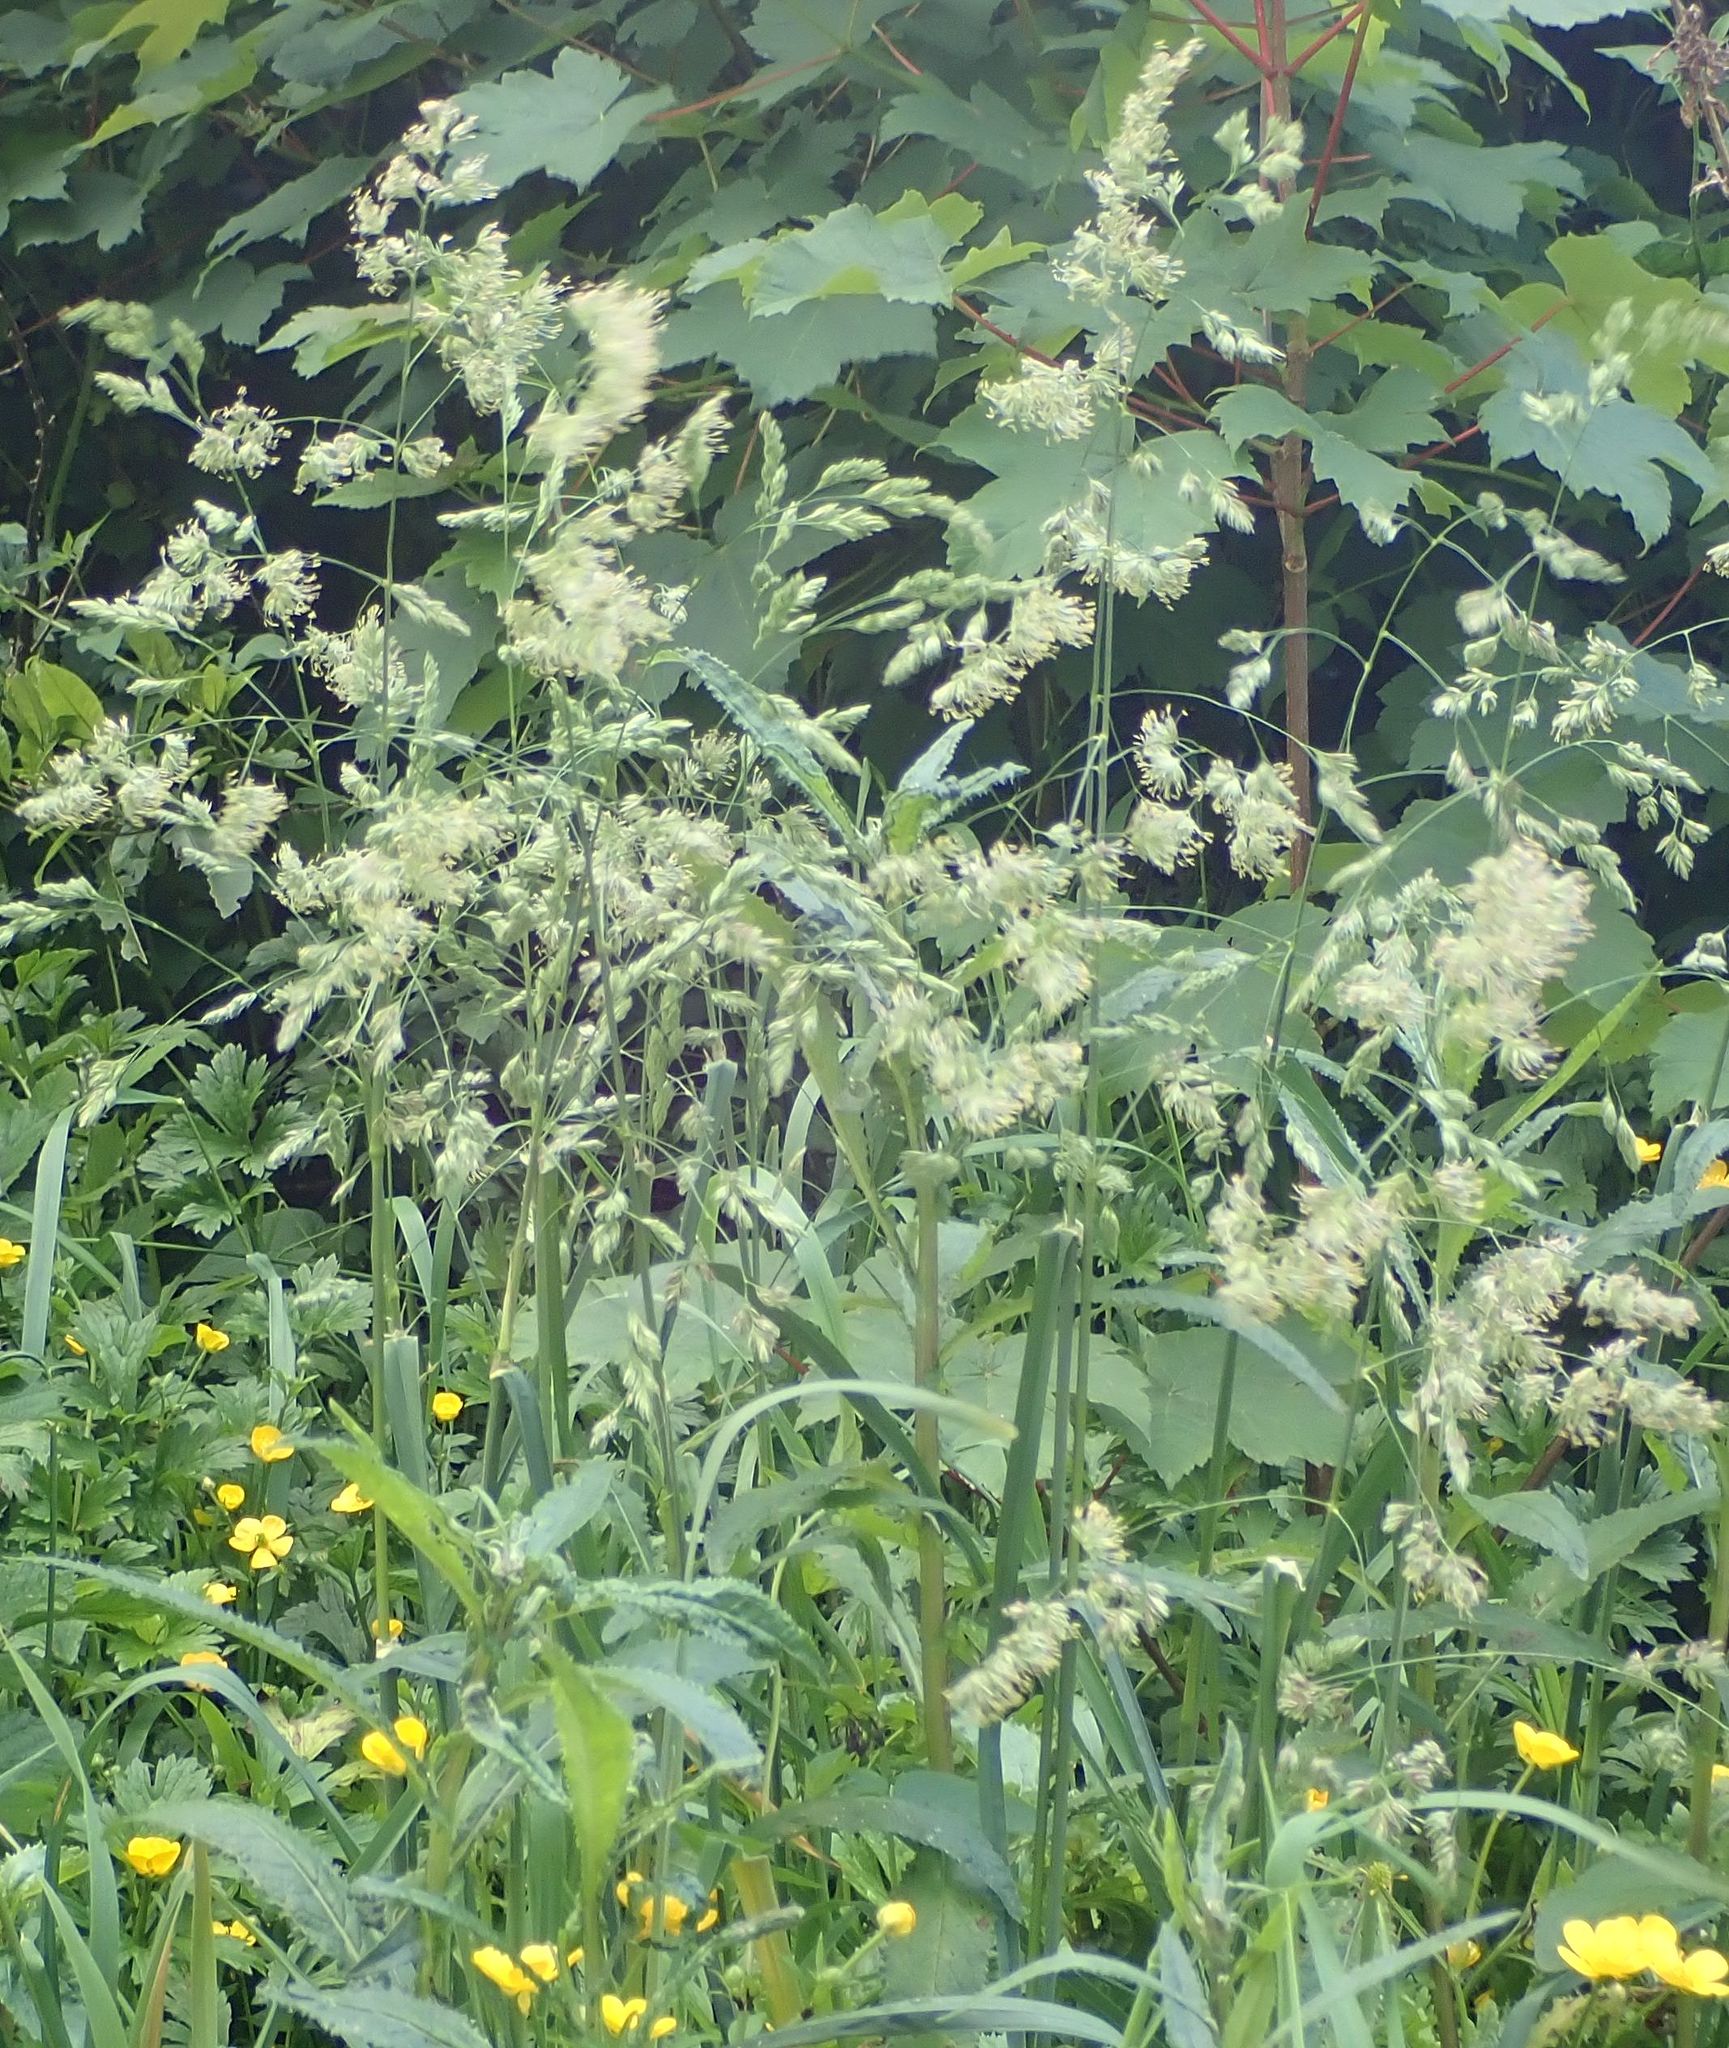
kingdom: Plantae
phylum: Tracheophyta
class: Liliopsida
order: Poales
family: Poaceae
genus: Dactylis
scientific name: Dactylis glomerata
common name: Orchardgrass
